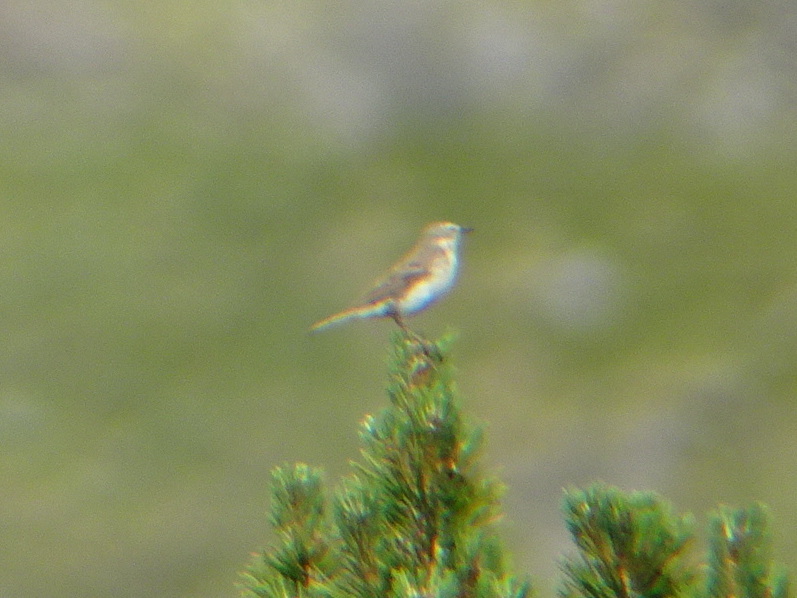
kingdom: Animalia
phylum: Chordata
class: Aves
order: Passeriformes
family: Motacillidae
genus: Anthus
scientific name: Anthus spinoletta
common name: Water pipit
